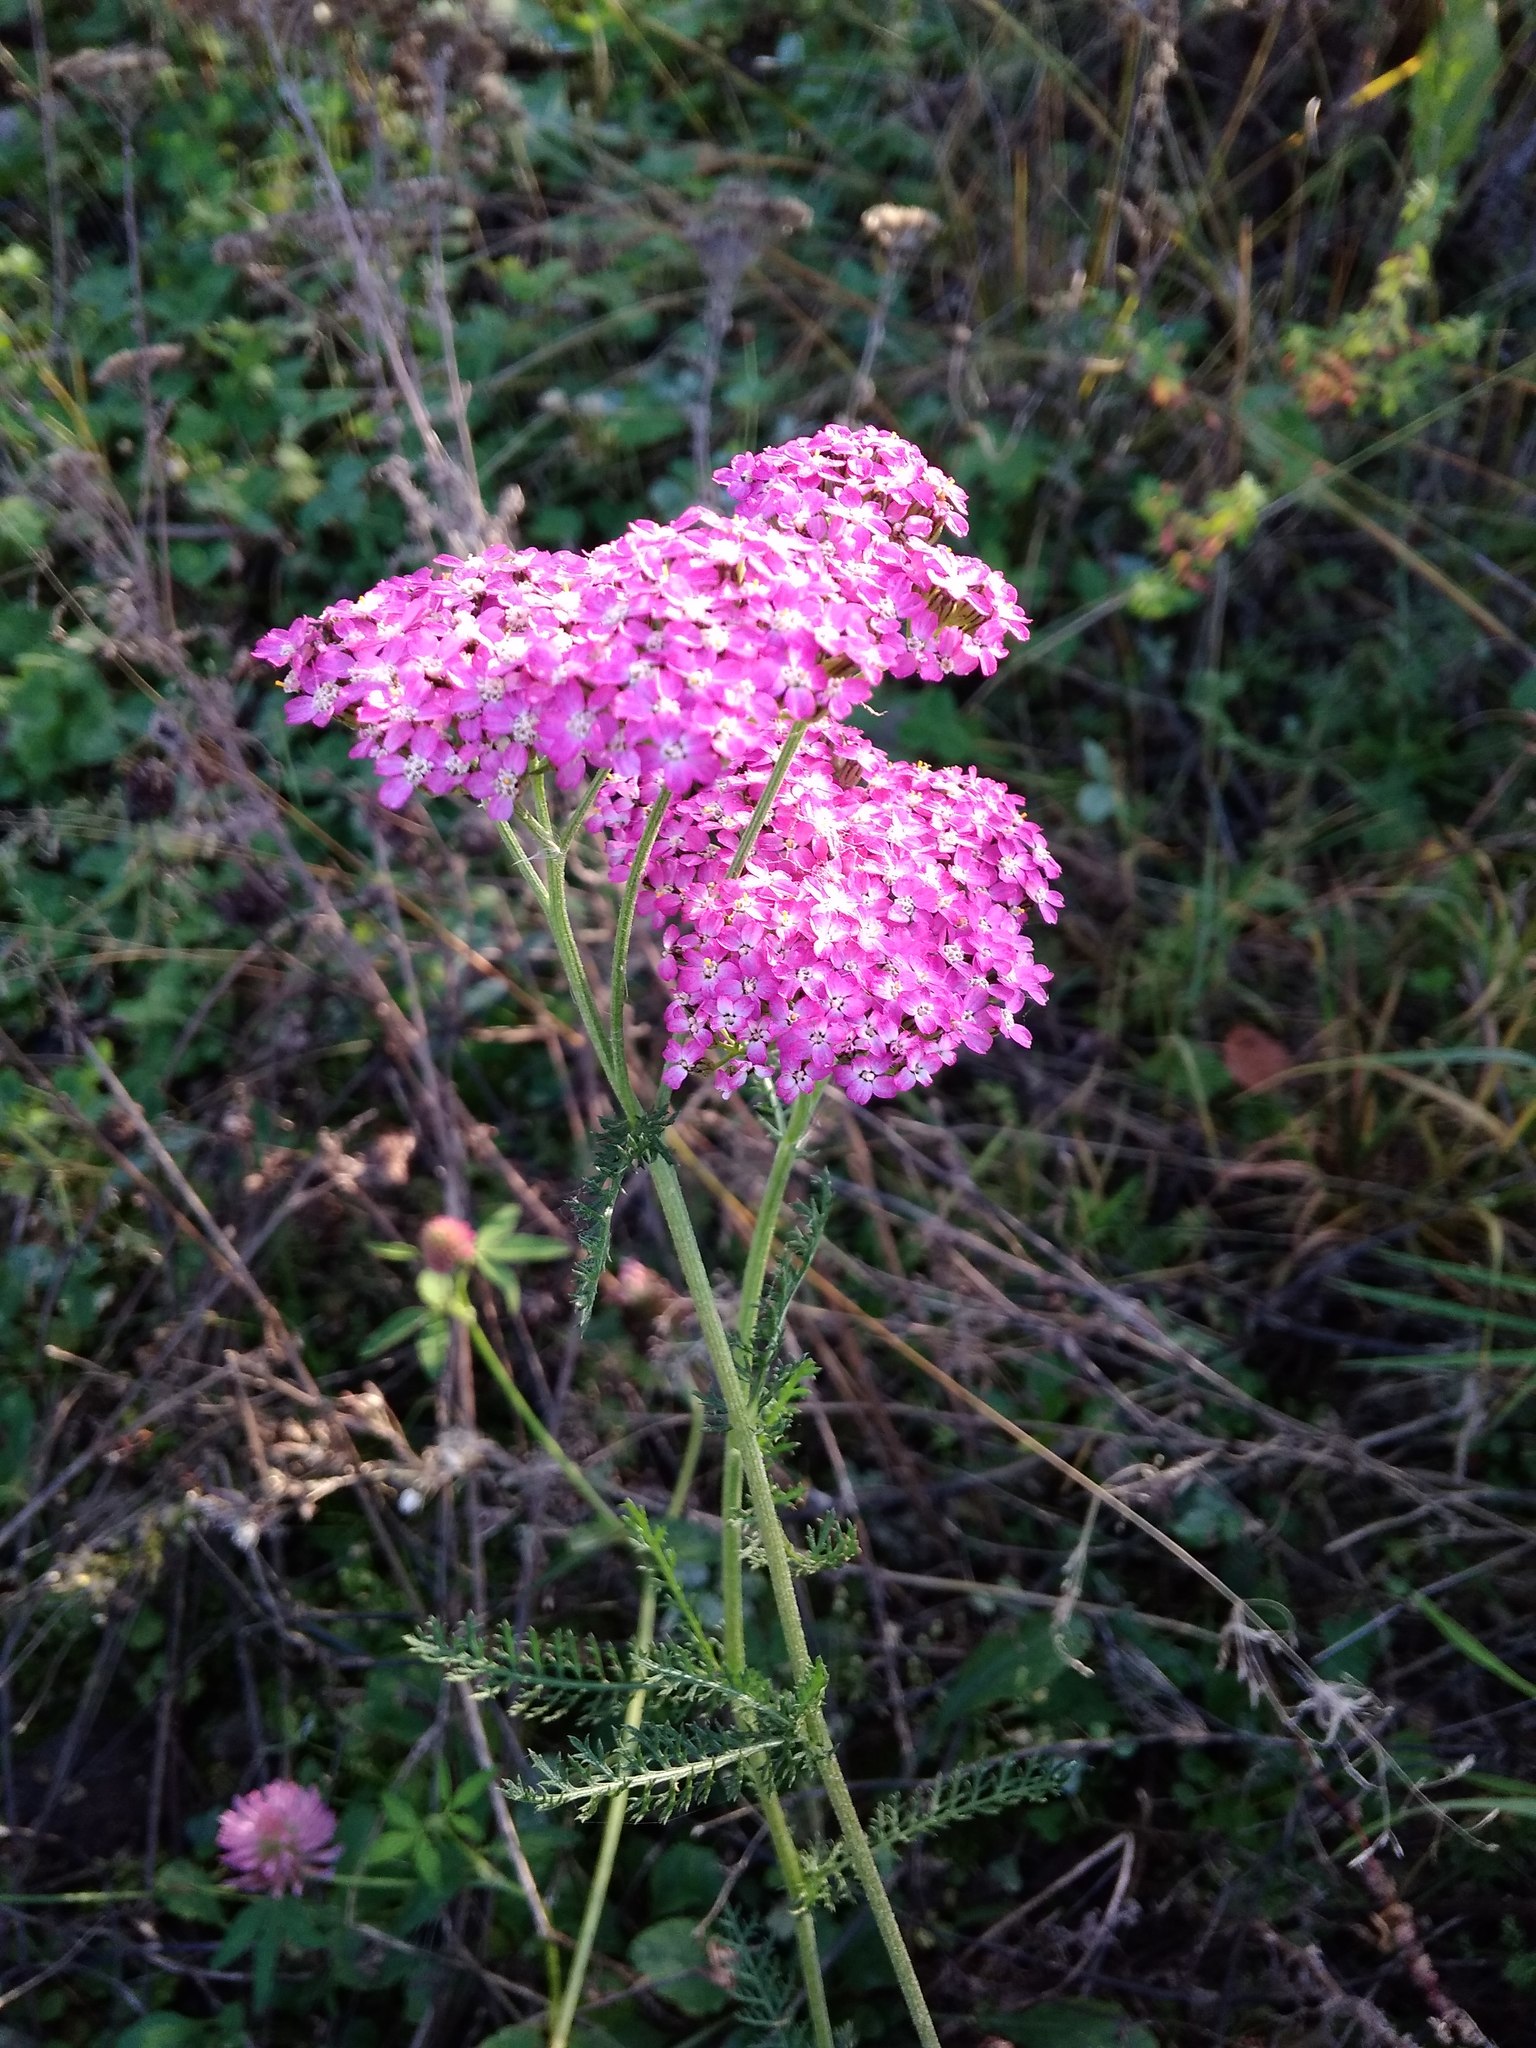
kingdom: Plantae
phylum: Tracheophyta
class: Magnoliopsida
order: Asterales
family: Asteraceae
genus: Achillea
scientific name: Achillea asiatica
